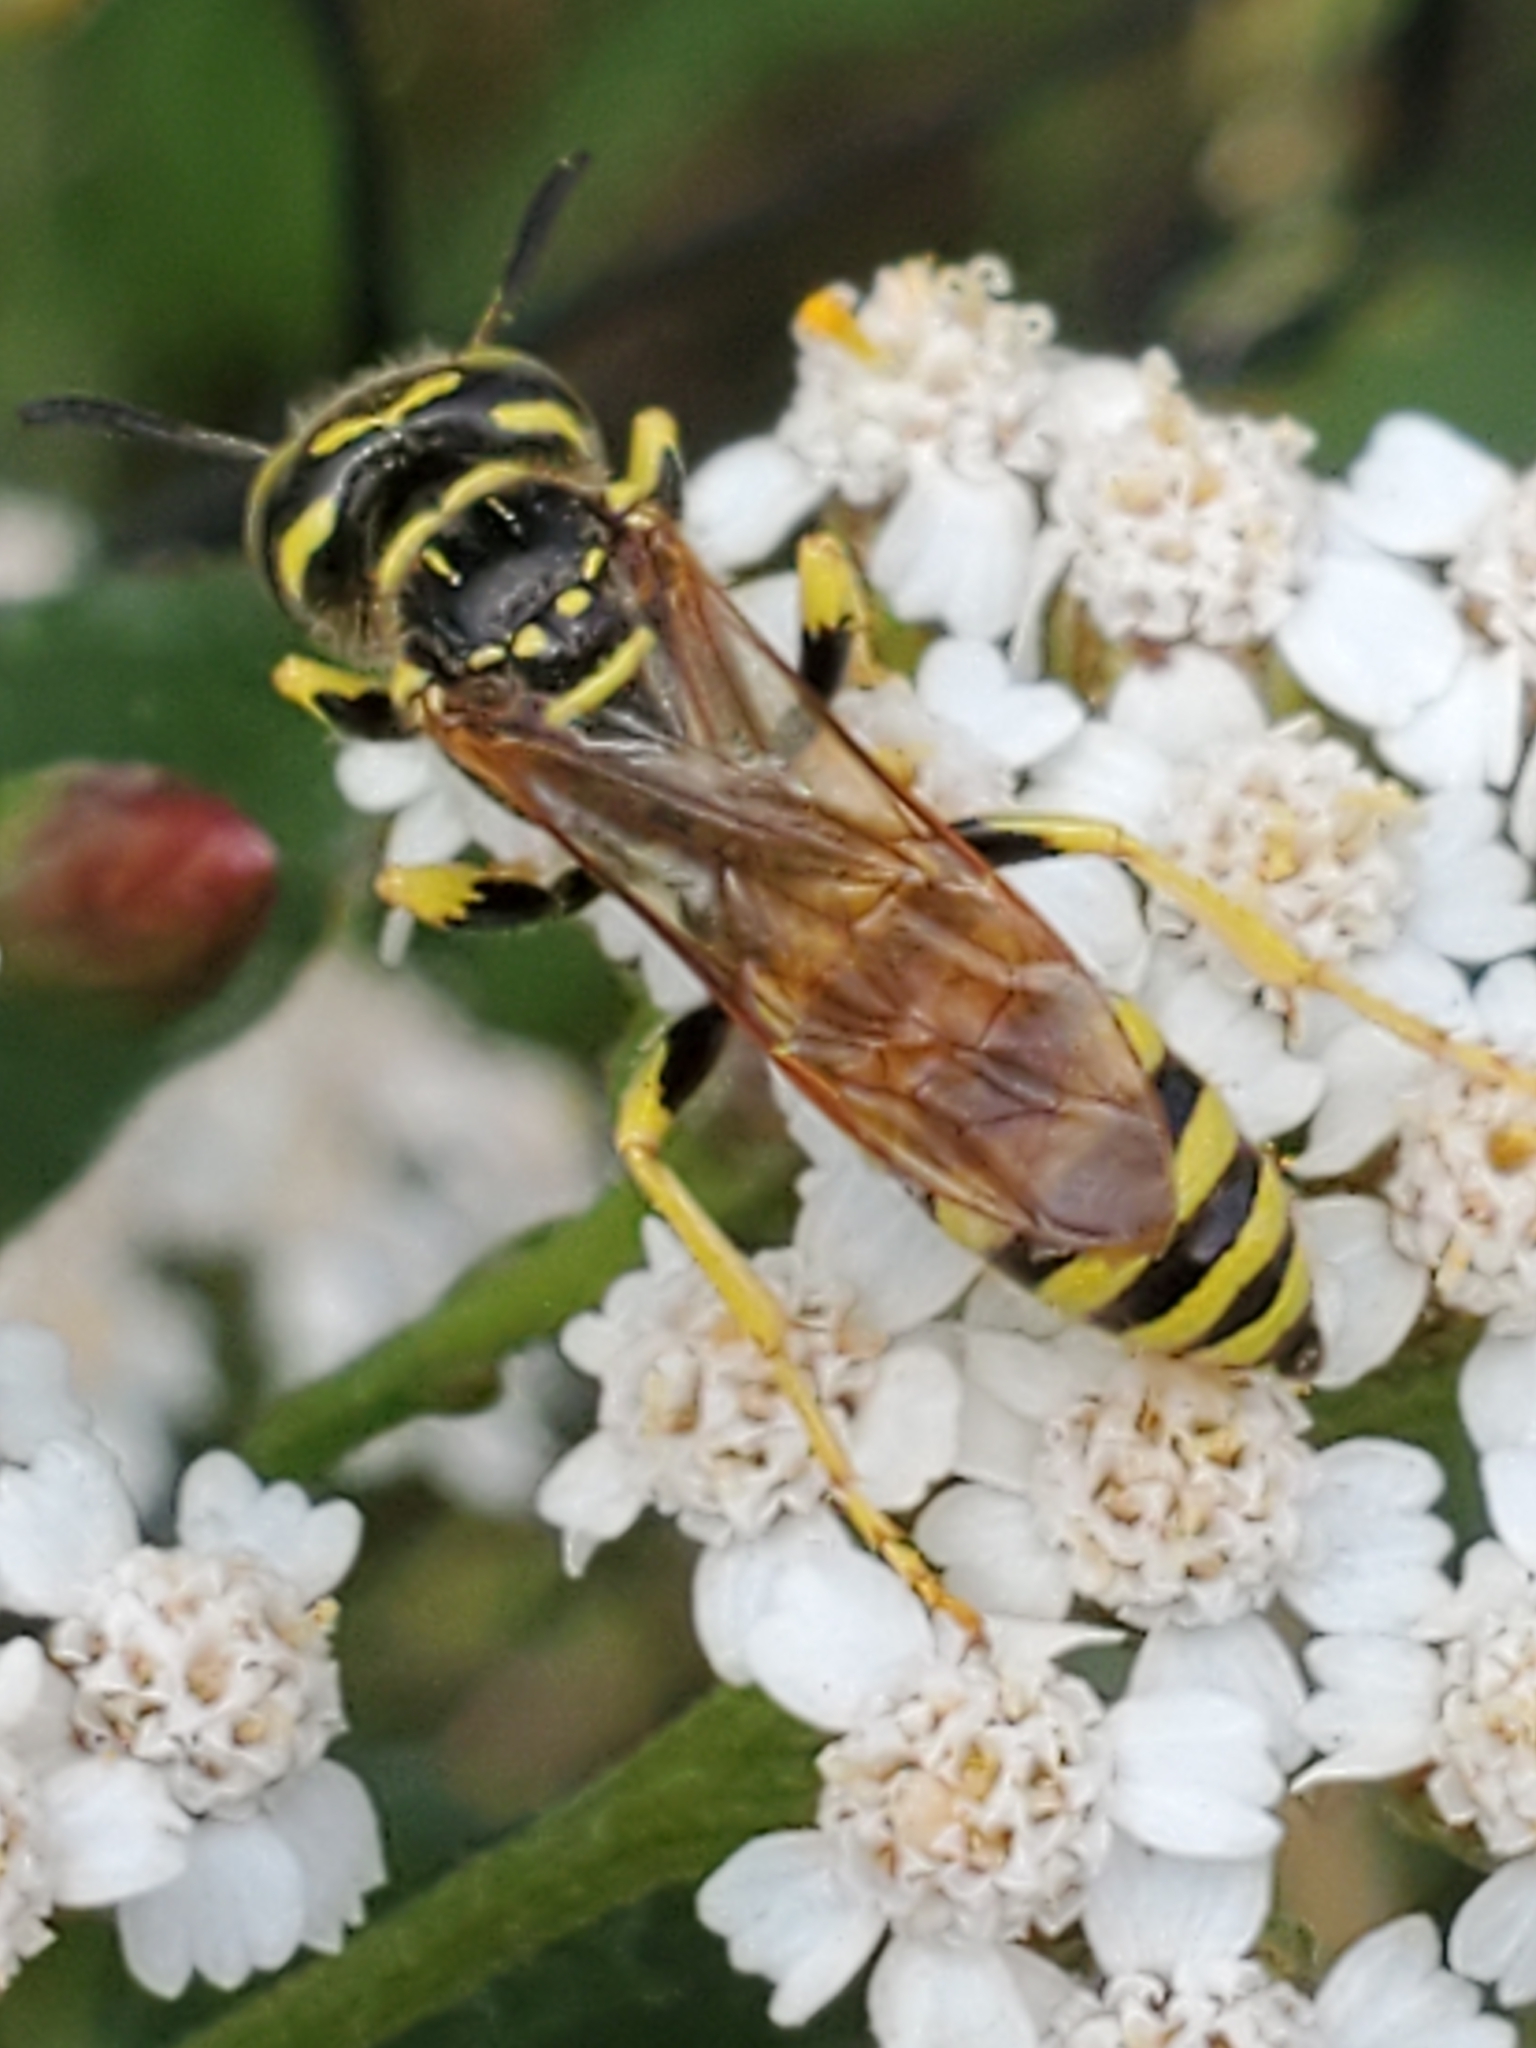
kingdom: Animalia
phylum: Arthropoda
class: Insecta
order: Hymenoptera
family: Crabronidae
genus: Philanthus
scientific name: Philanthus crabroniformis
